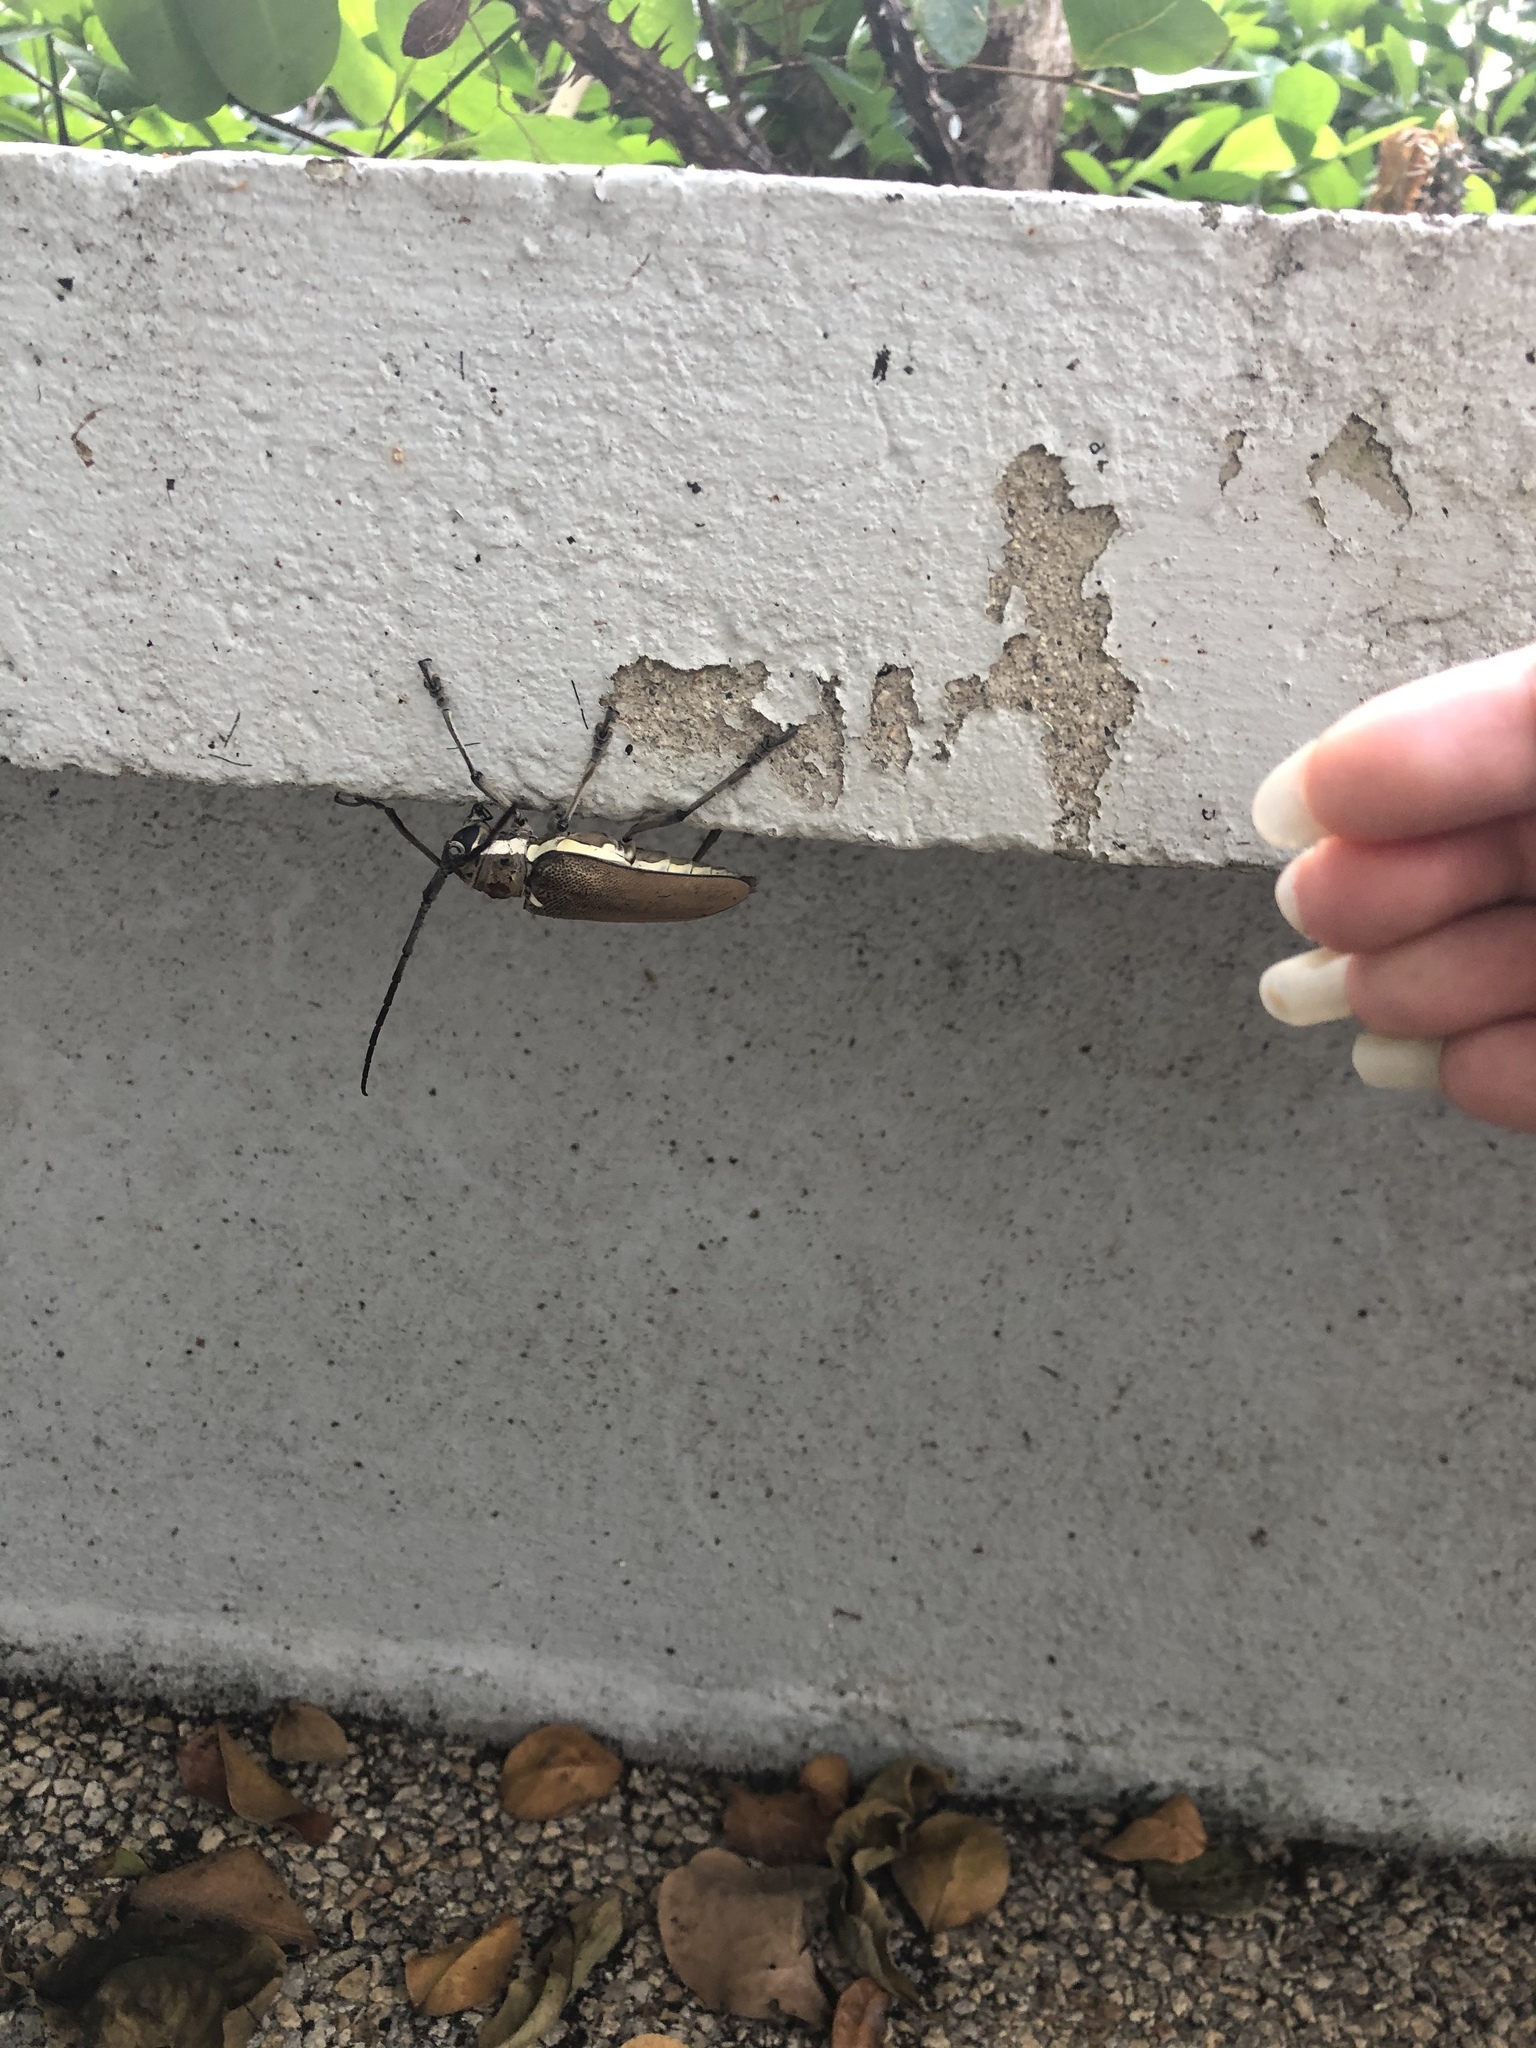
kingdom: Animalia
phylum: Arthropoda
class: Insecta
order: Coleoptera
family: Cerambycidae
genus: Batocera
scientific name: Batocera rufomaculata
